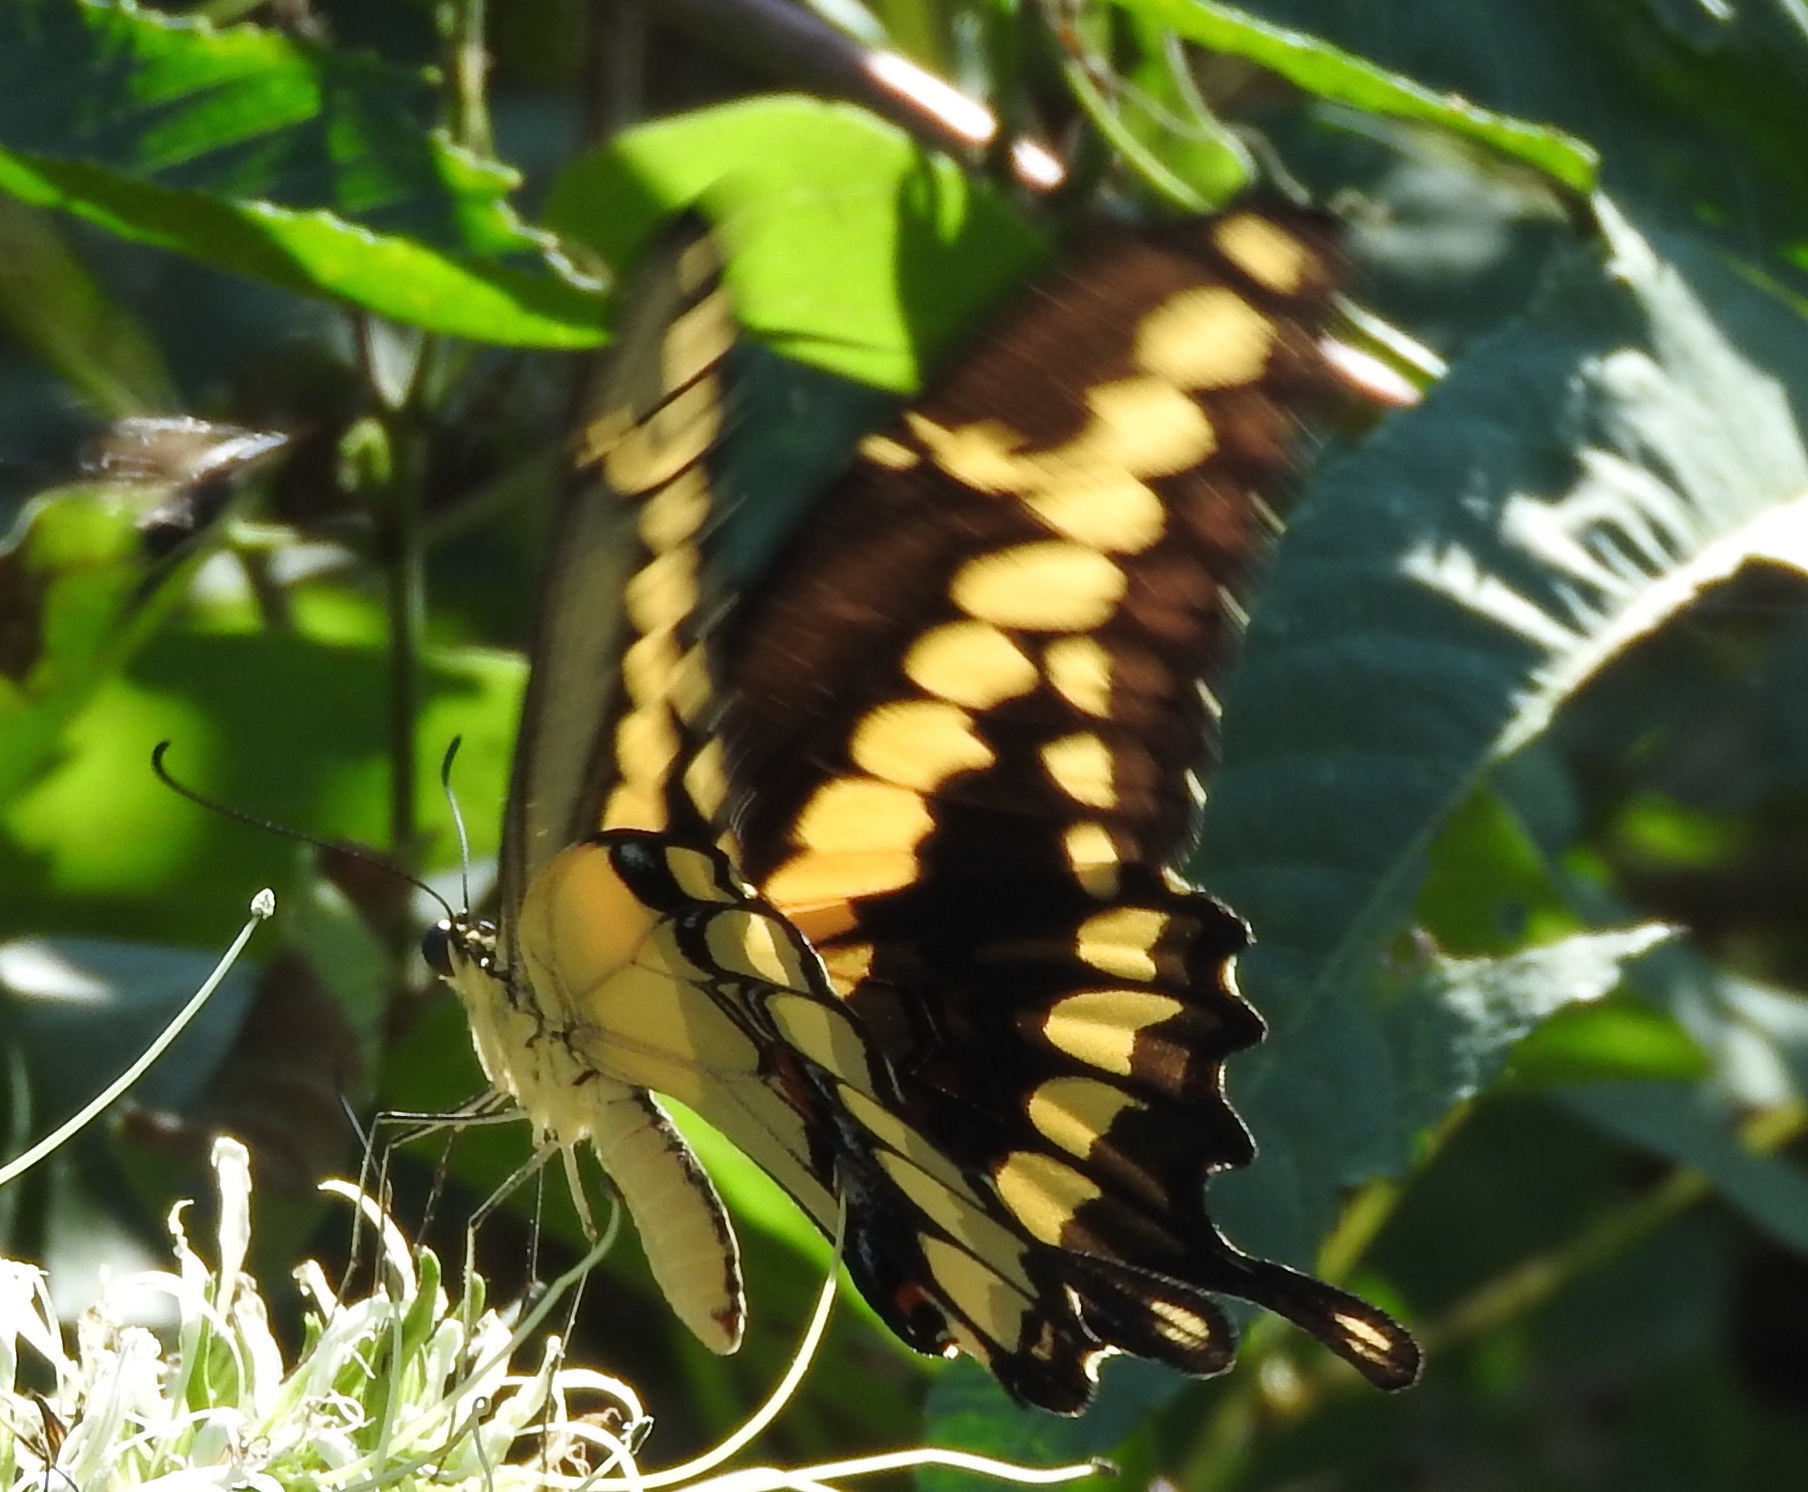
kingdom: Animalia
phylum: Arthropoda
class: Insecta
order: Lepidoptera
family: Papilionidae
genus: Papilio
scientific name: Papilio rumiko
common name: Western giant swallowtail
